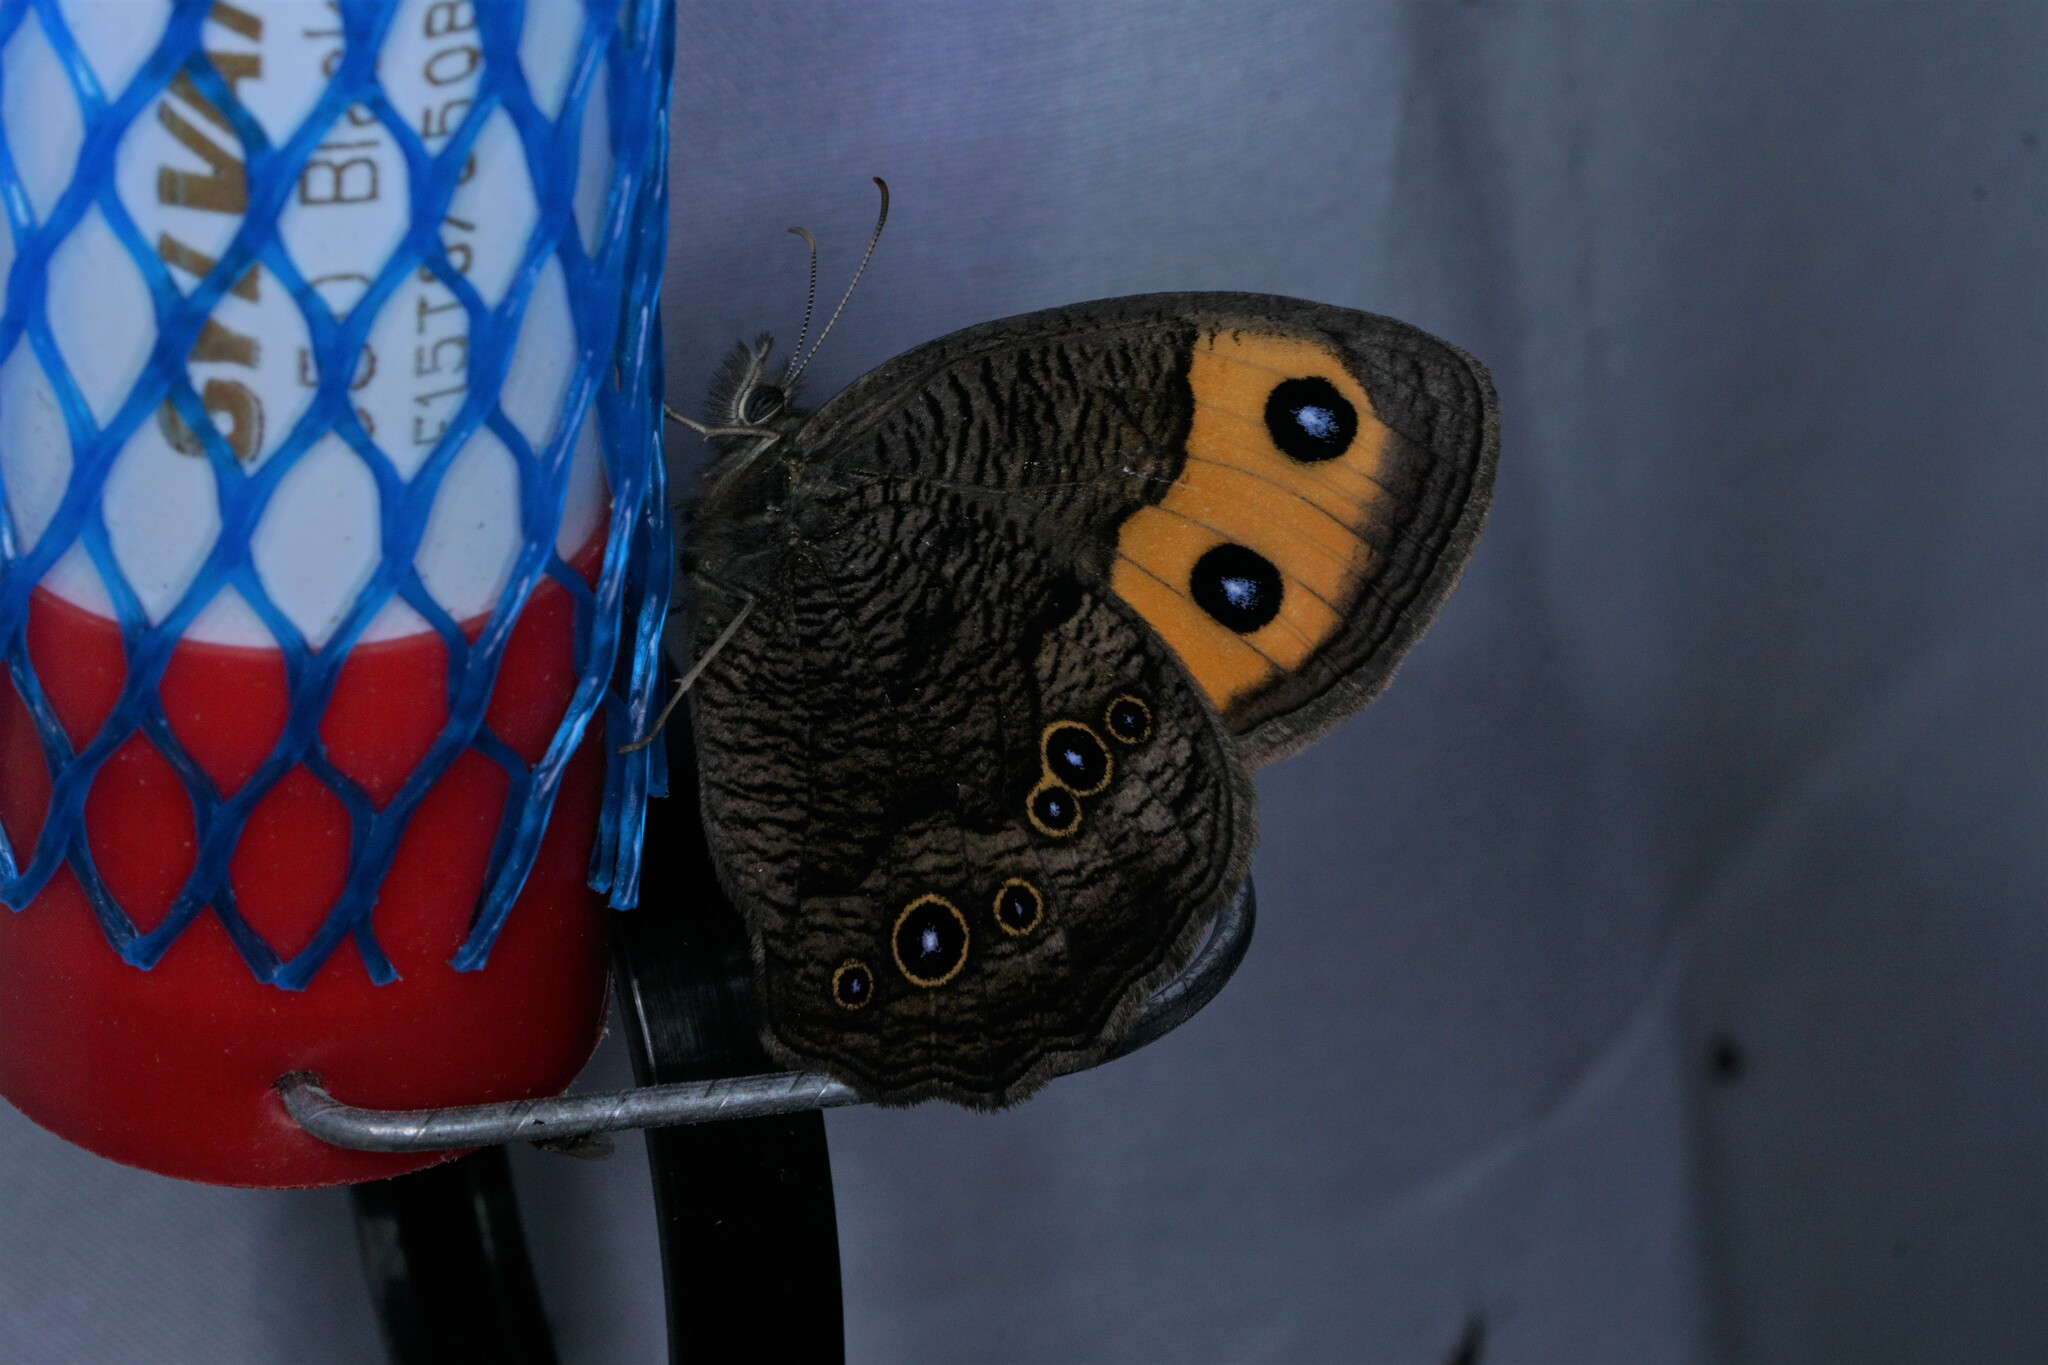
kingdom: Animalia
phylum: Arthropoda
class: Insecta
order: Lepidoptera
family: Nymphalidae
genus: Cercyonis
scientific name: Cercyonis pegala
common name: Common wood-nymph
